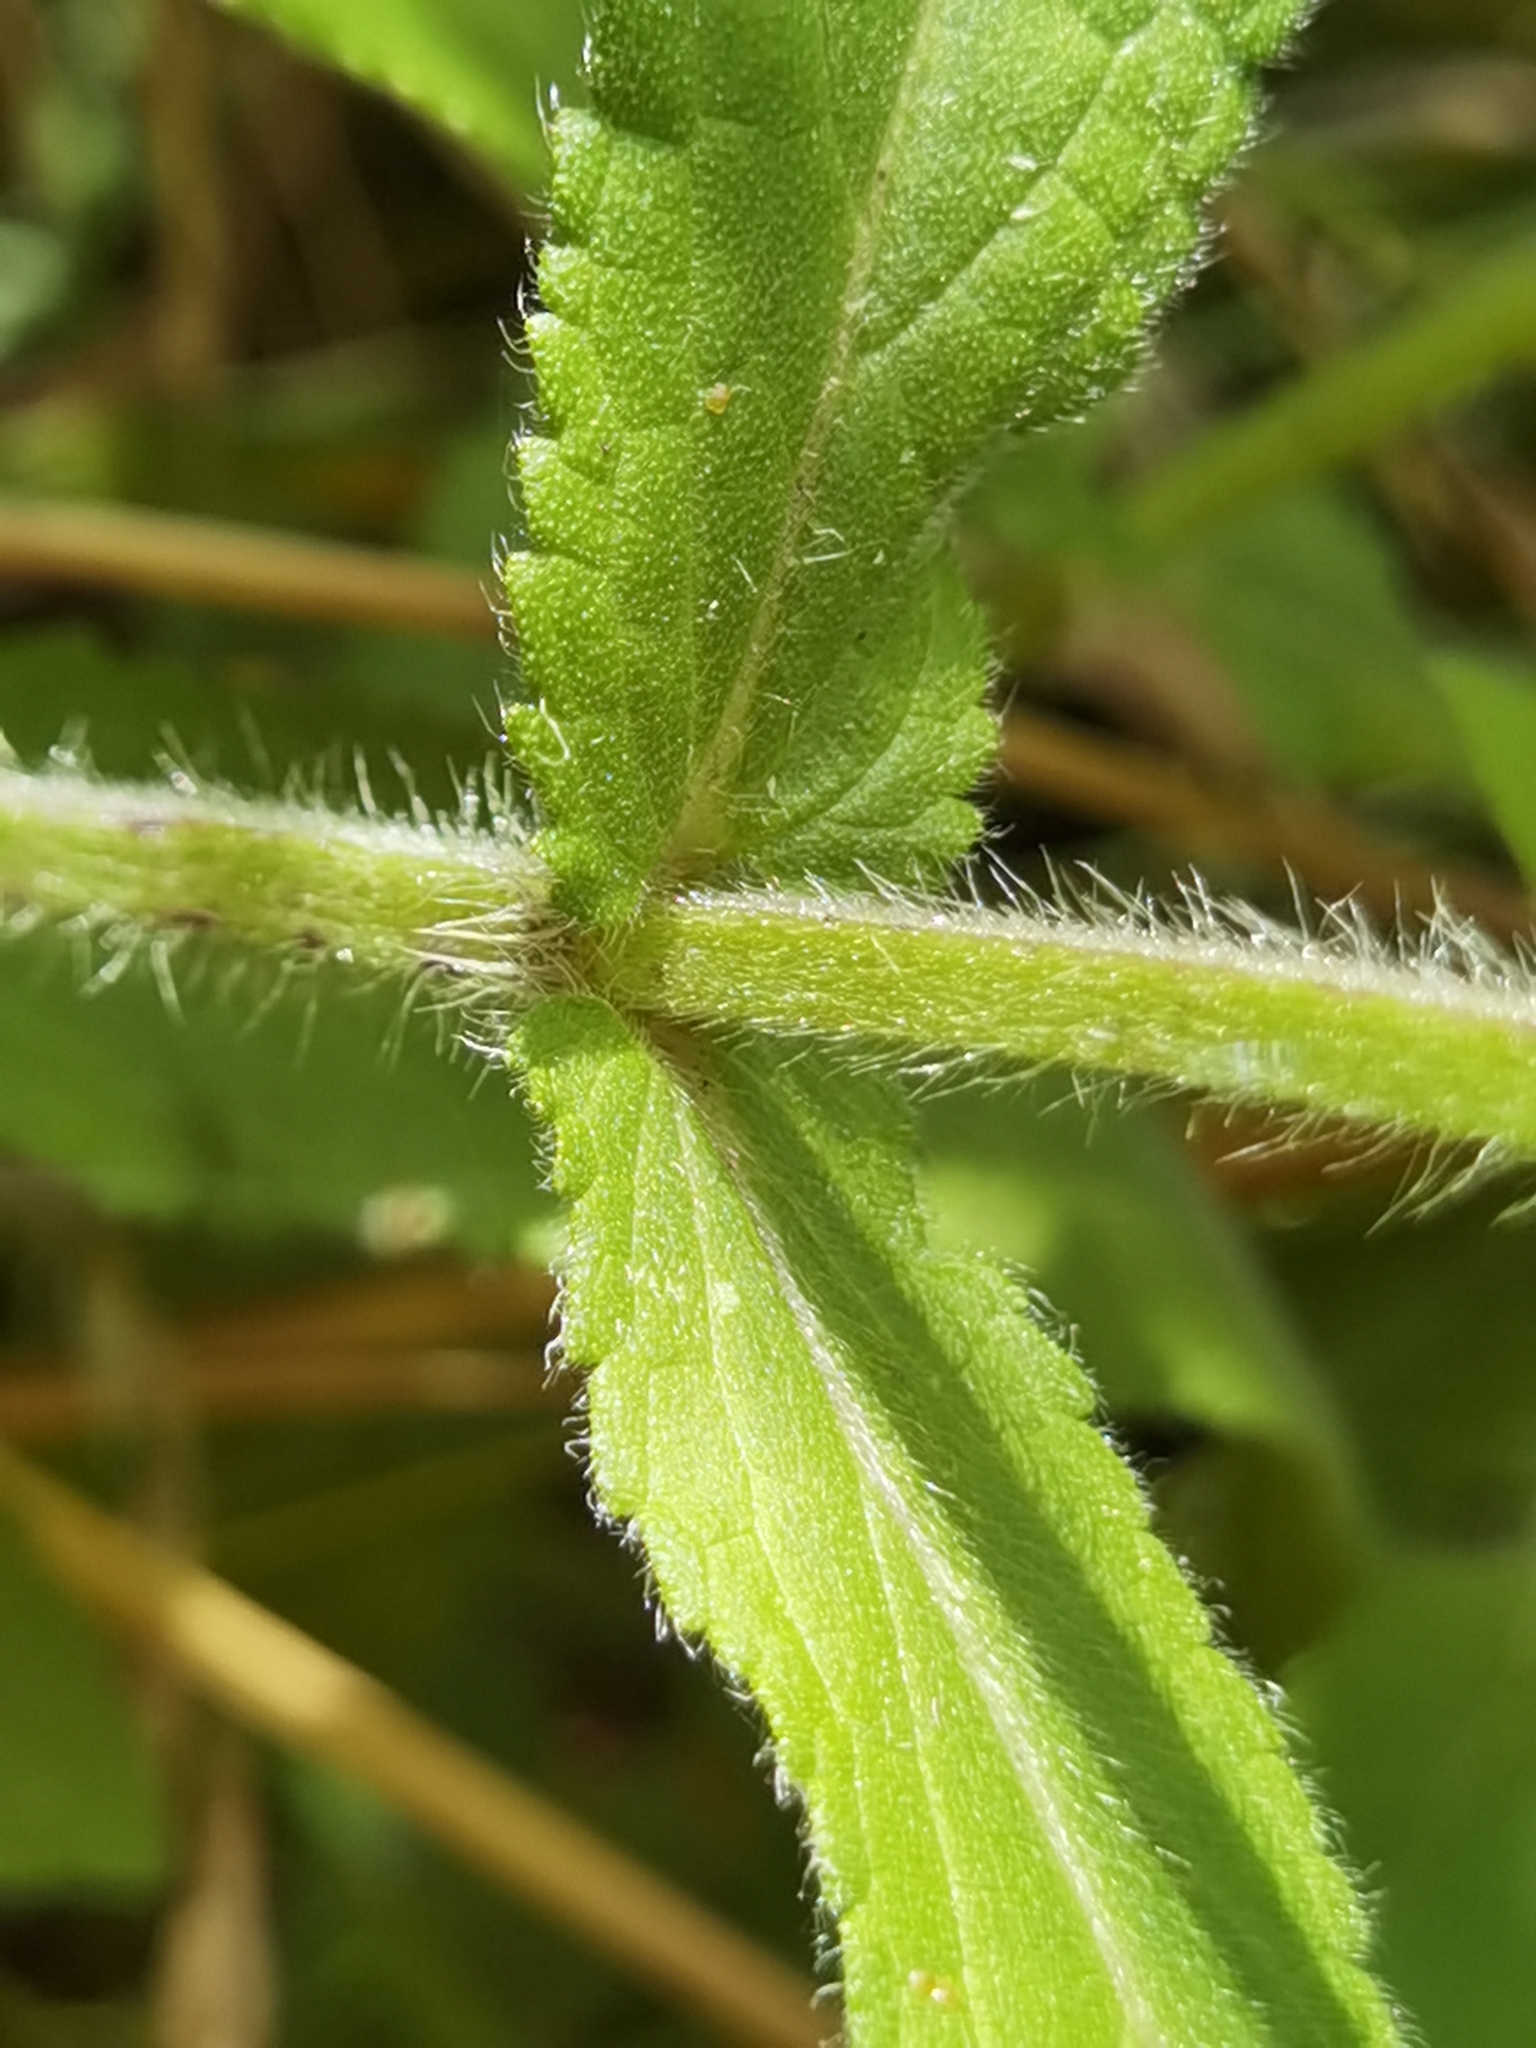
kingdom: Plantae
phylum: Tracheophyta
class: Magnoliopsida
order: Lamiales
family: Lamiaceae
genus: Stachys
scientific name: Stachys palustris
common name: Marsh woundwort
